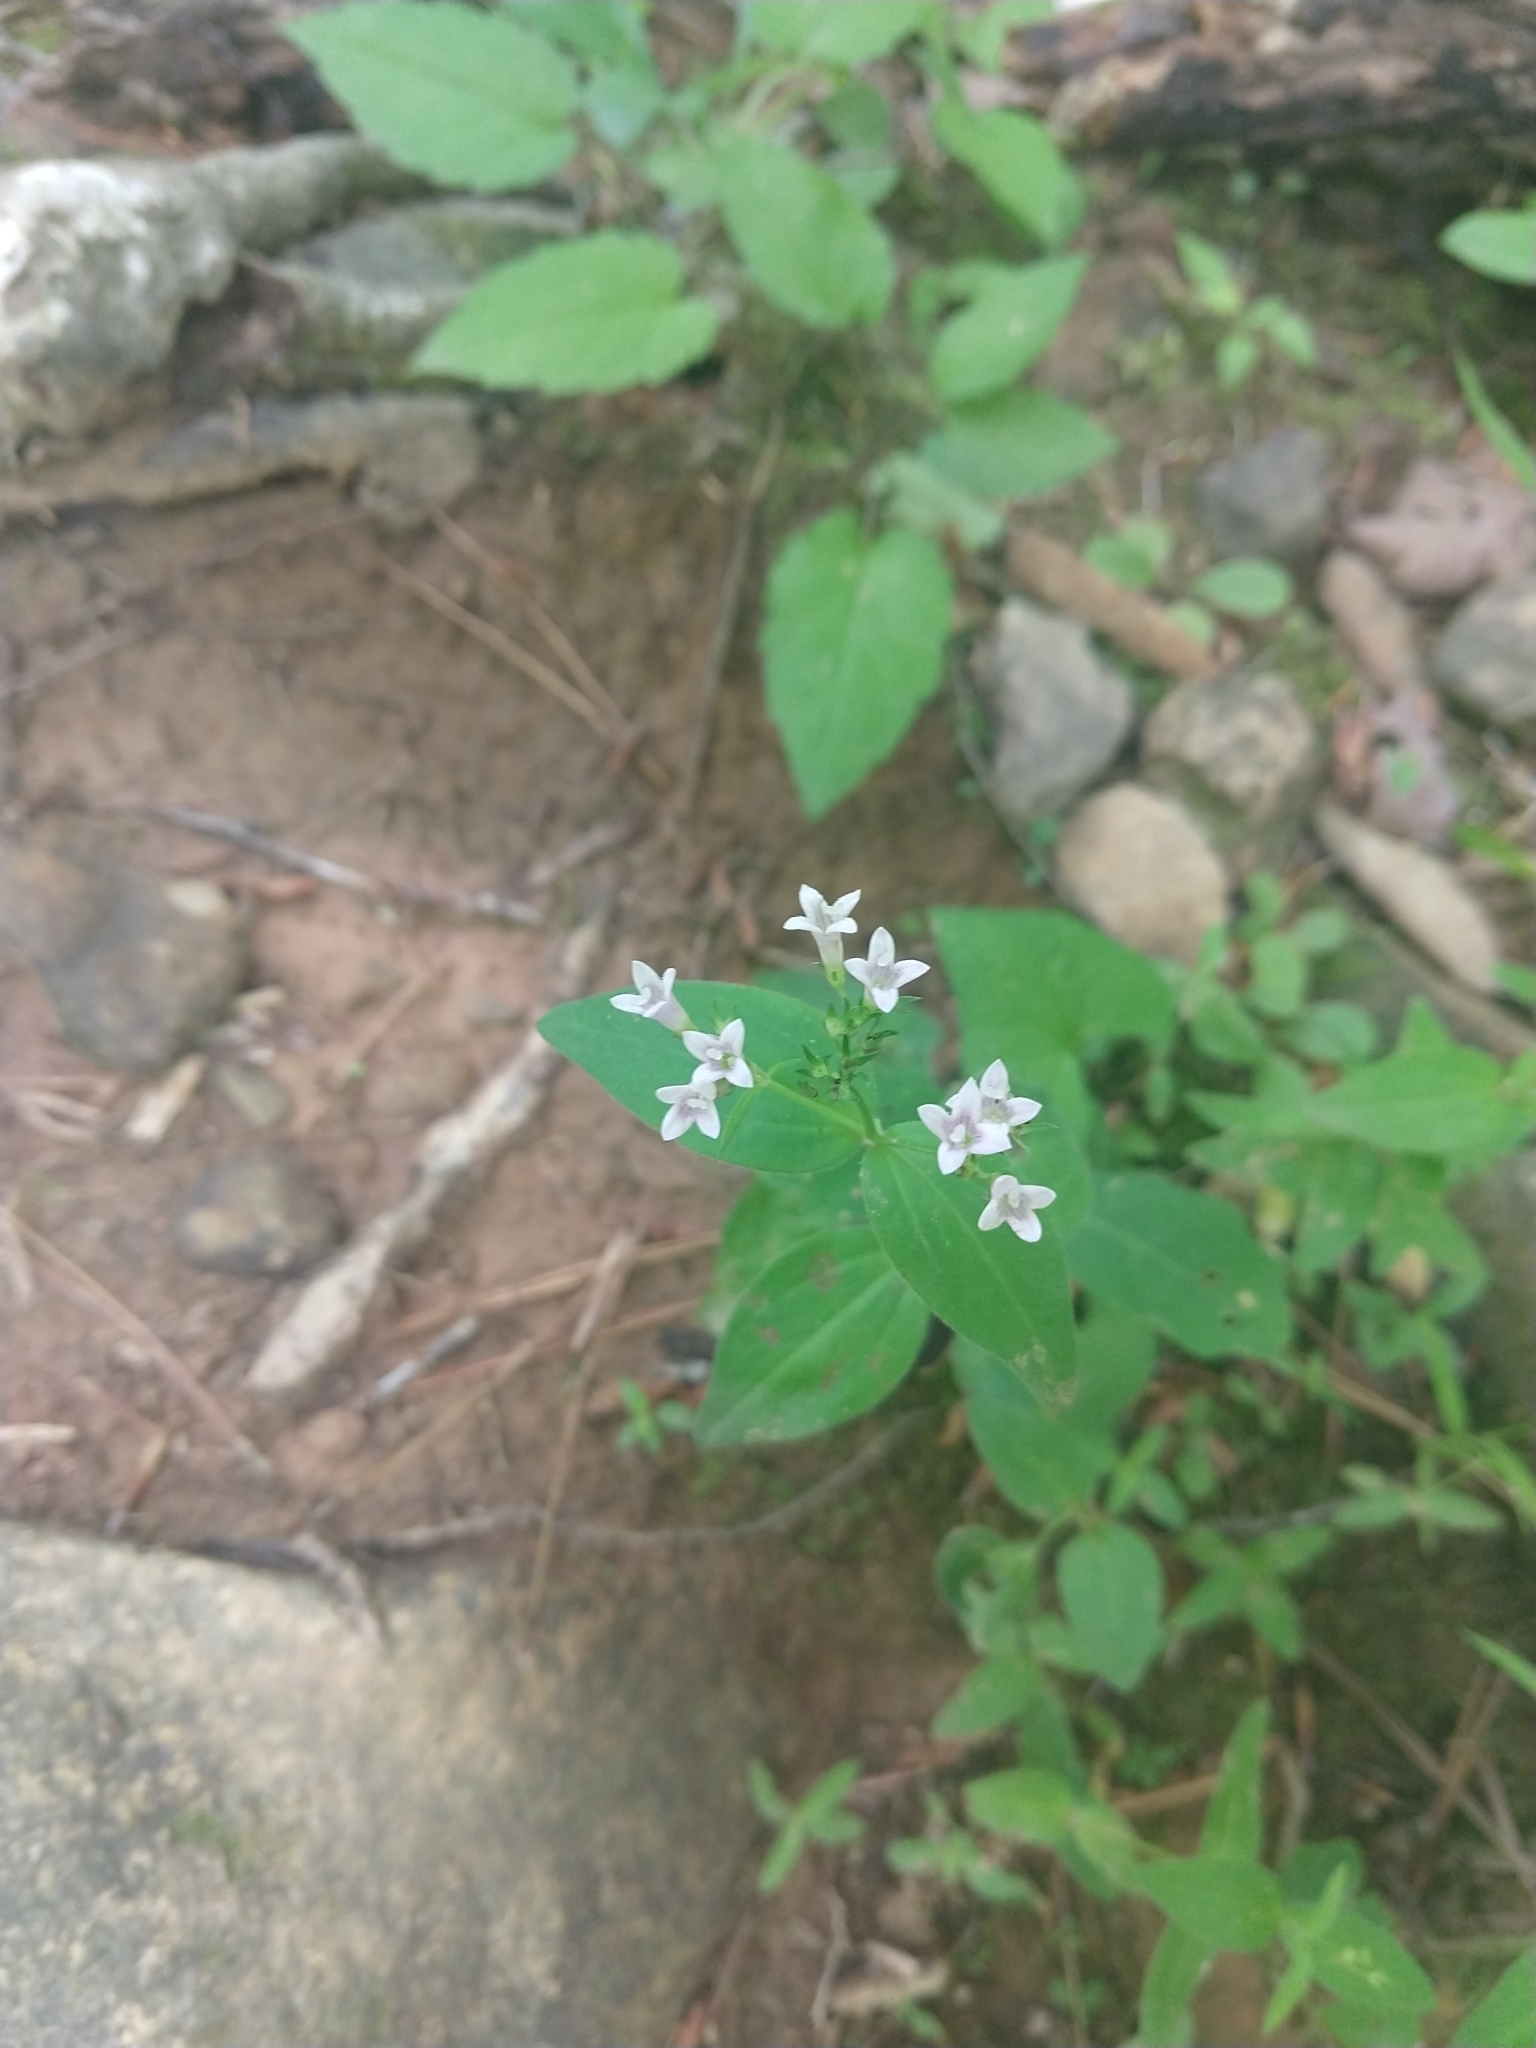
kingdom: Plantae
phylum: Tracheophyta
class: Magnoliopsida
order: Gentianales
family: Rubiaceae
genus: Houstonia
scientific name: Houstonia purpurea
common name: Summer bluet
